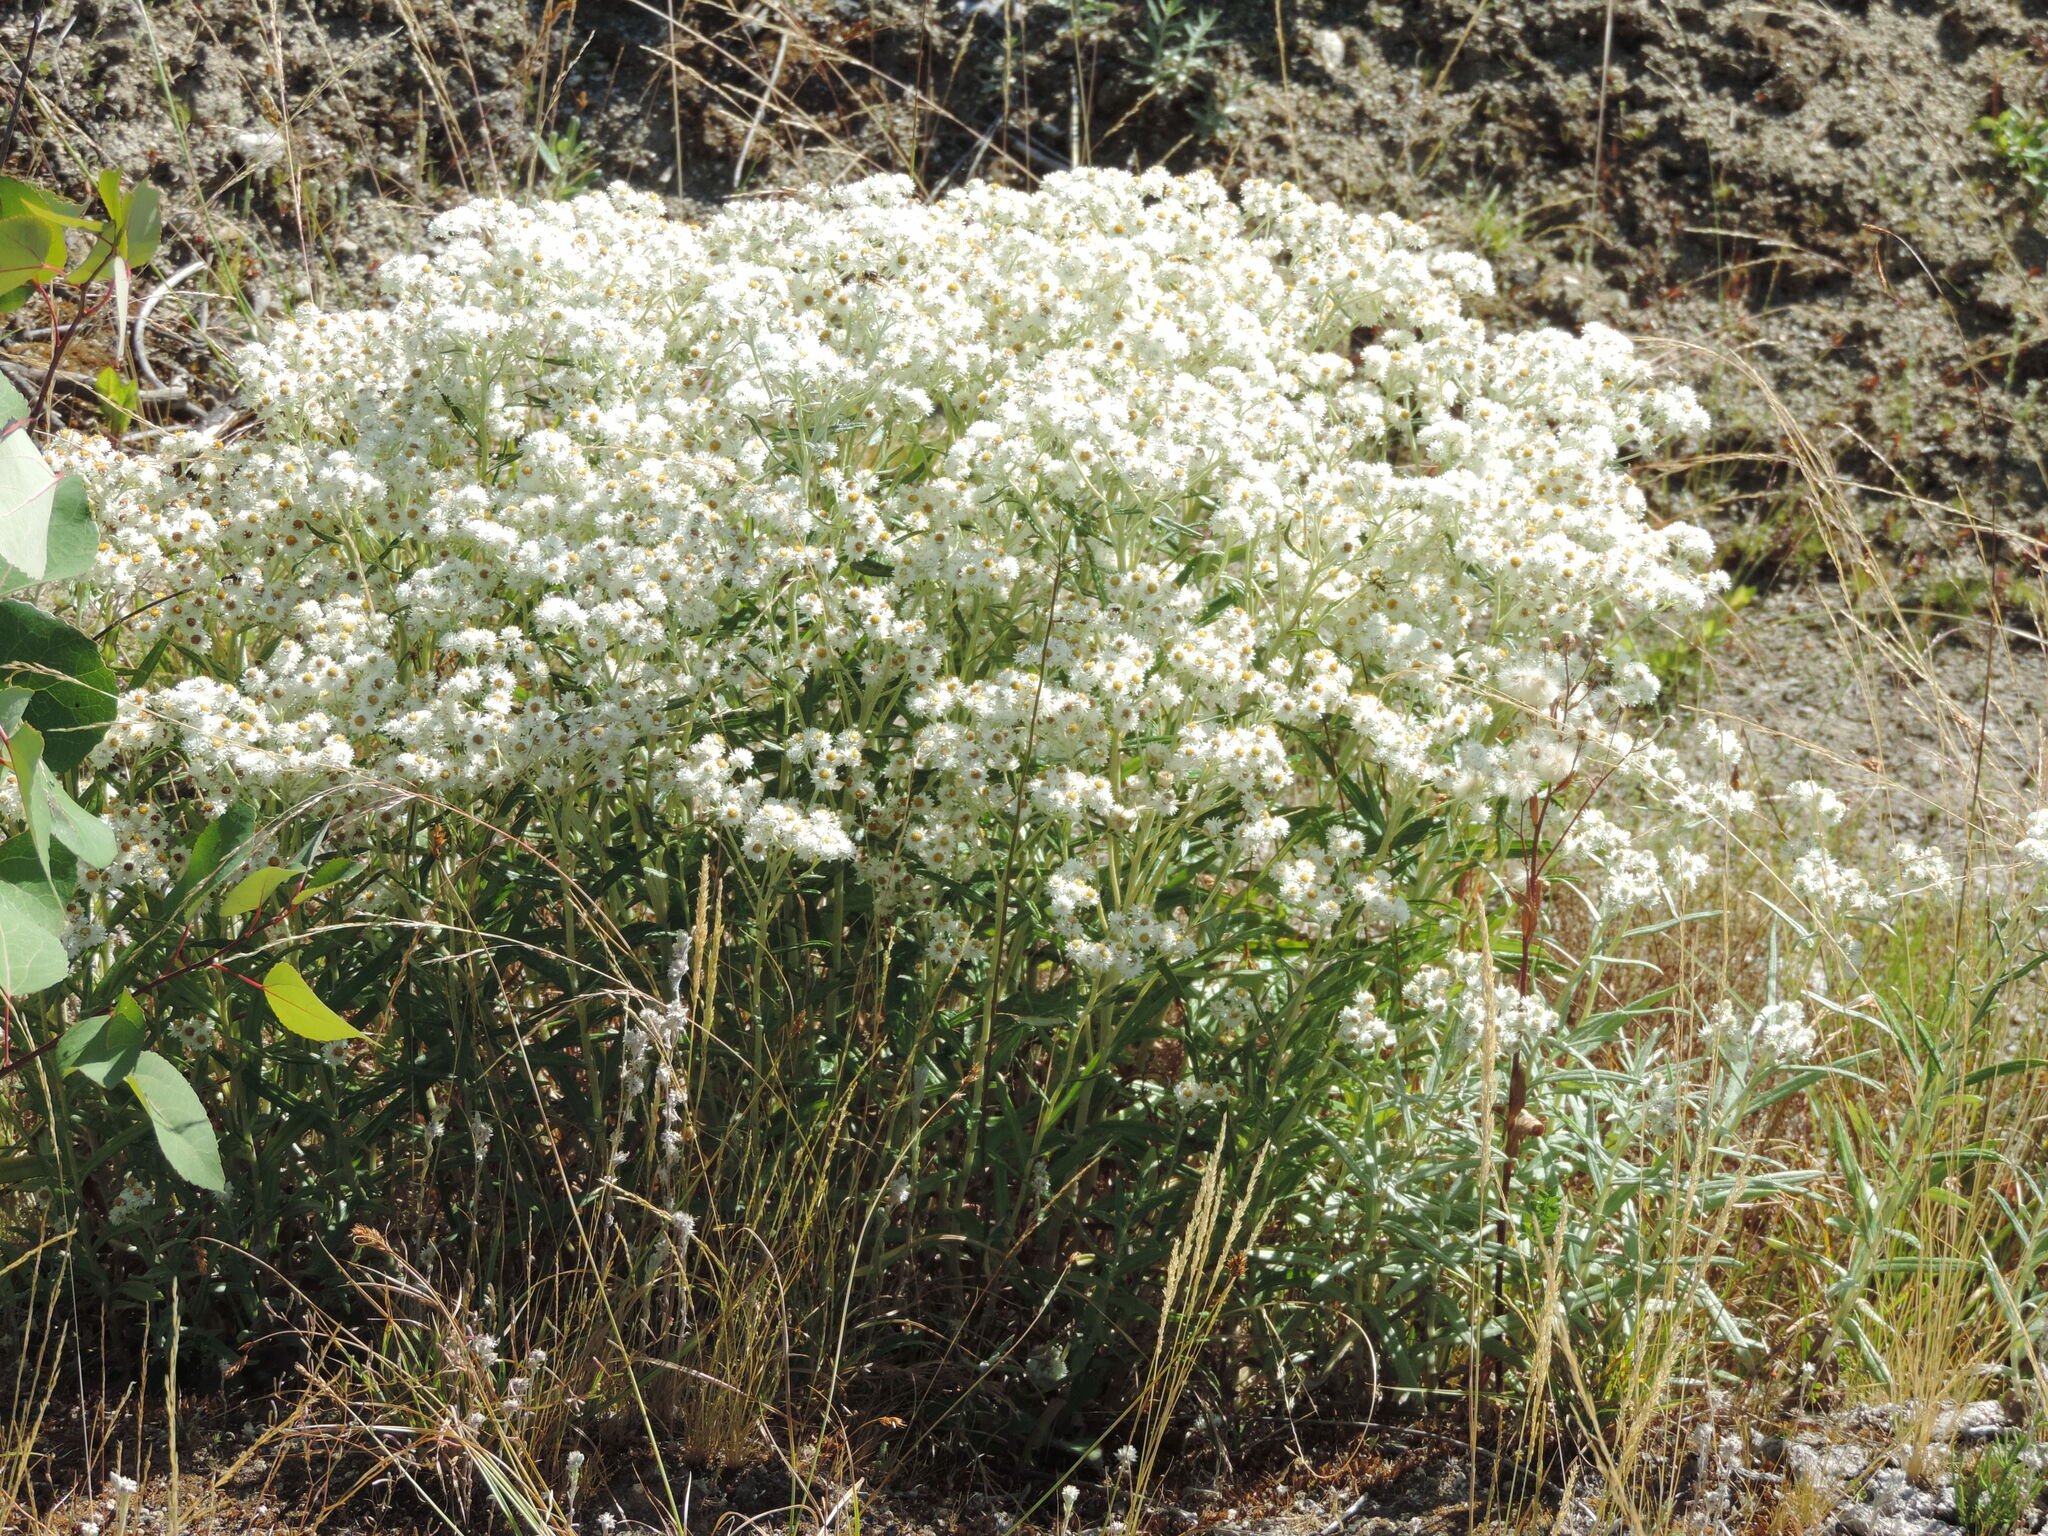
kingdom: Plantae
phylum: Tracheophyta
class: Magnoliopsida
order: Asterales
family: Asteraceae
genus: Anaphalis
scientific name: Anaphalis margaritacea
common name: Pearly everlasting
